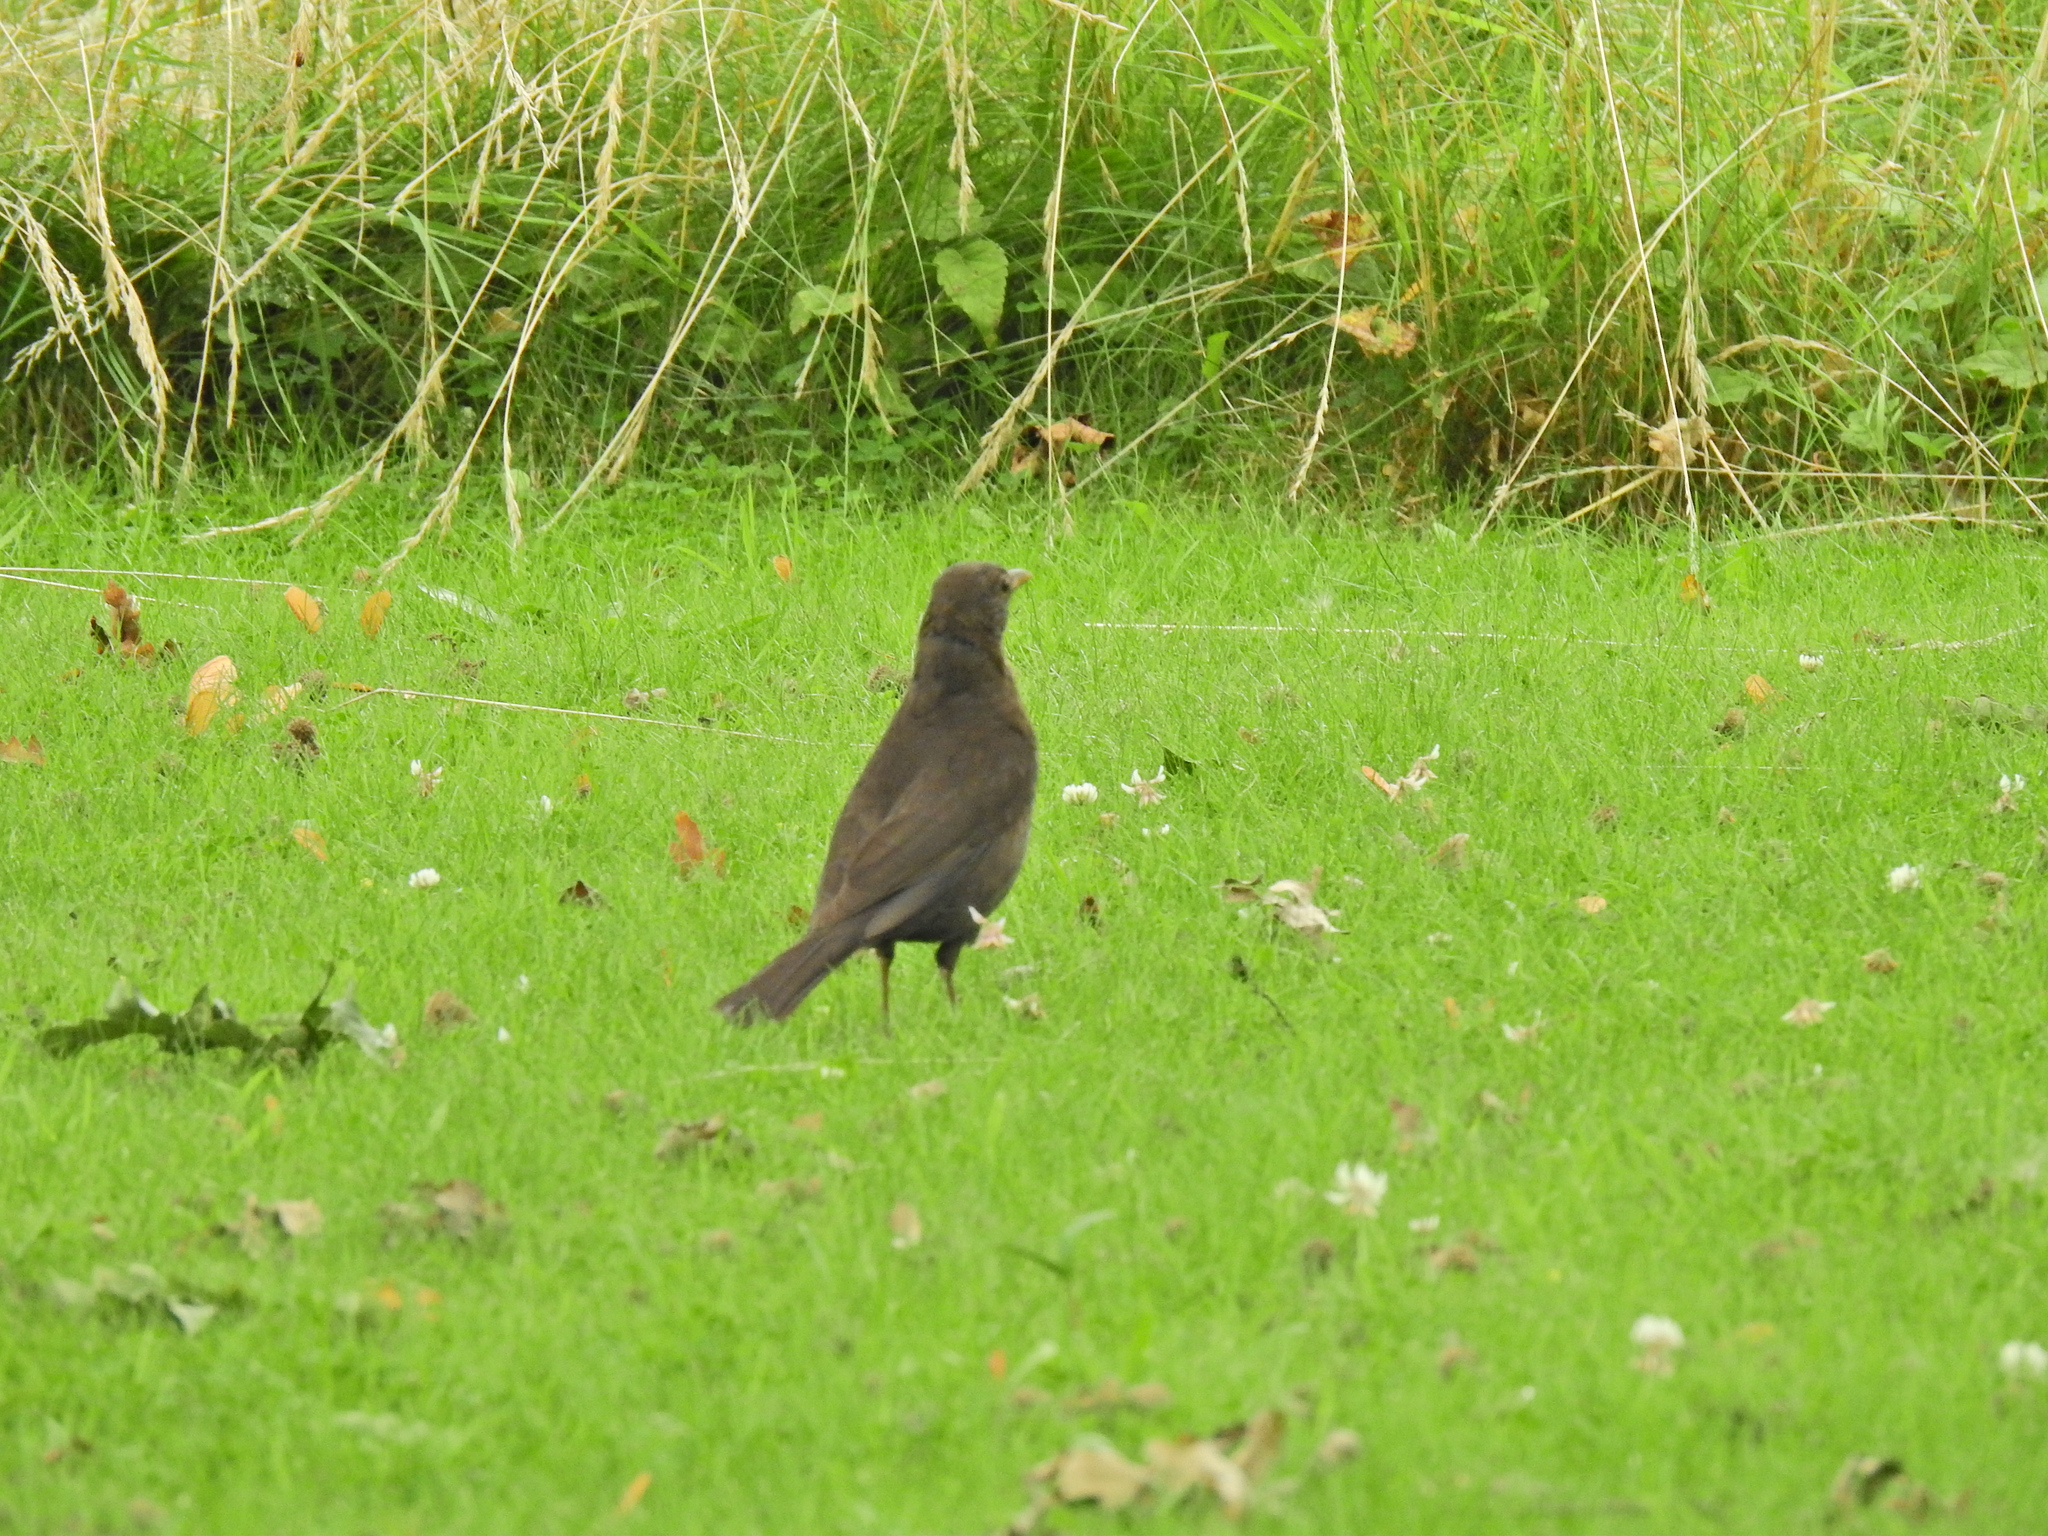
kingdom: Animalia
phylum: Chordata
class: Aves
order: Passeriformes
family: Turdidae
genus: Turdus
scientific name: Turdus merula
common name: Common blackbird
